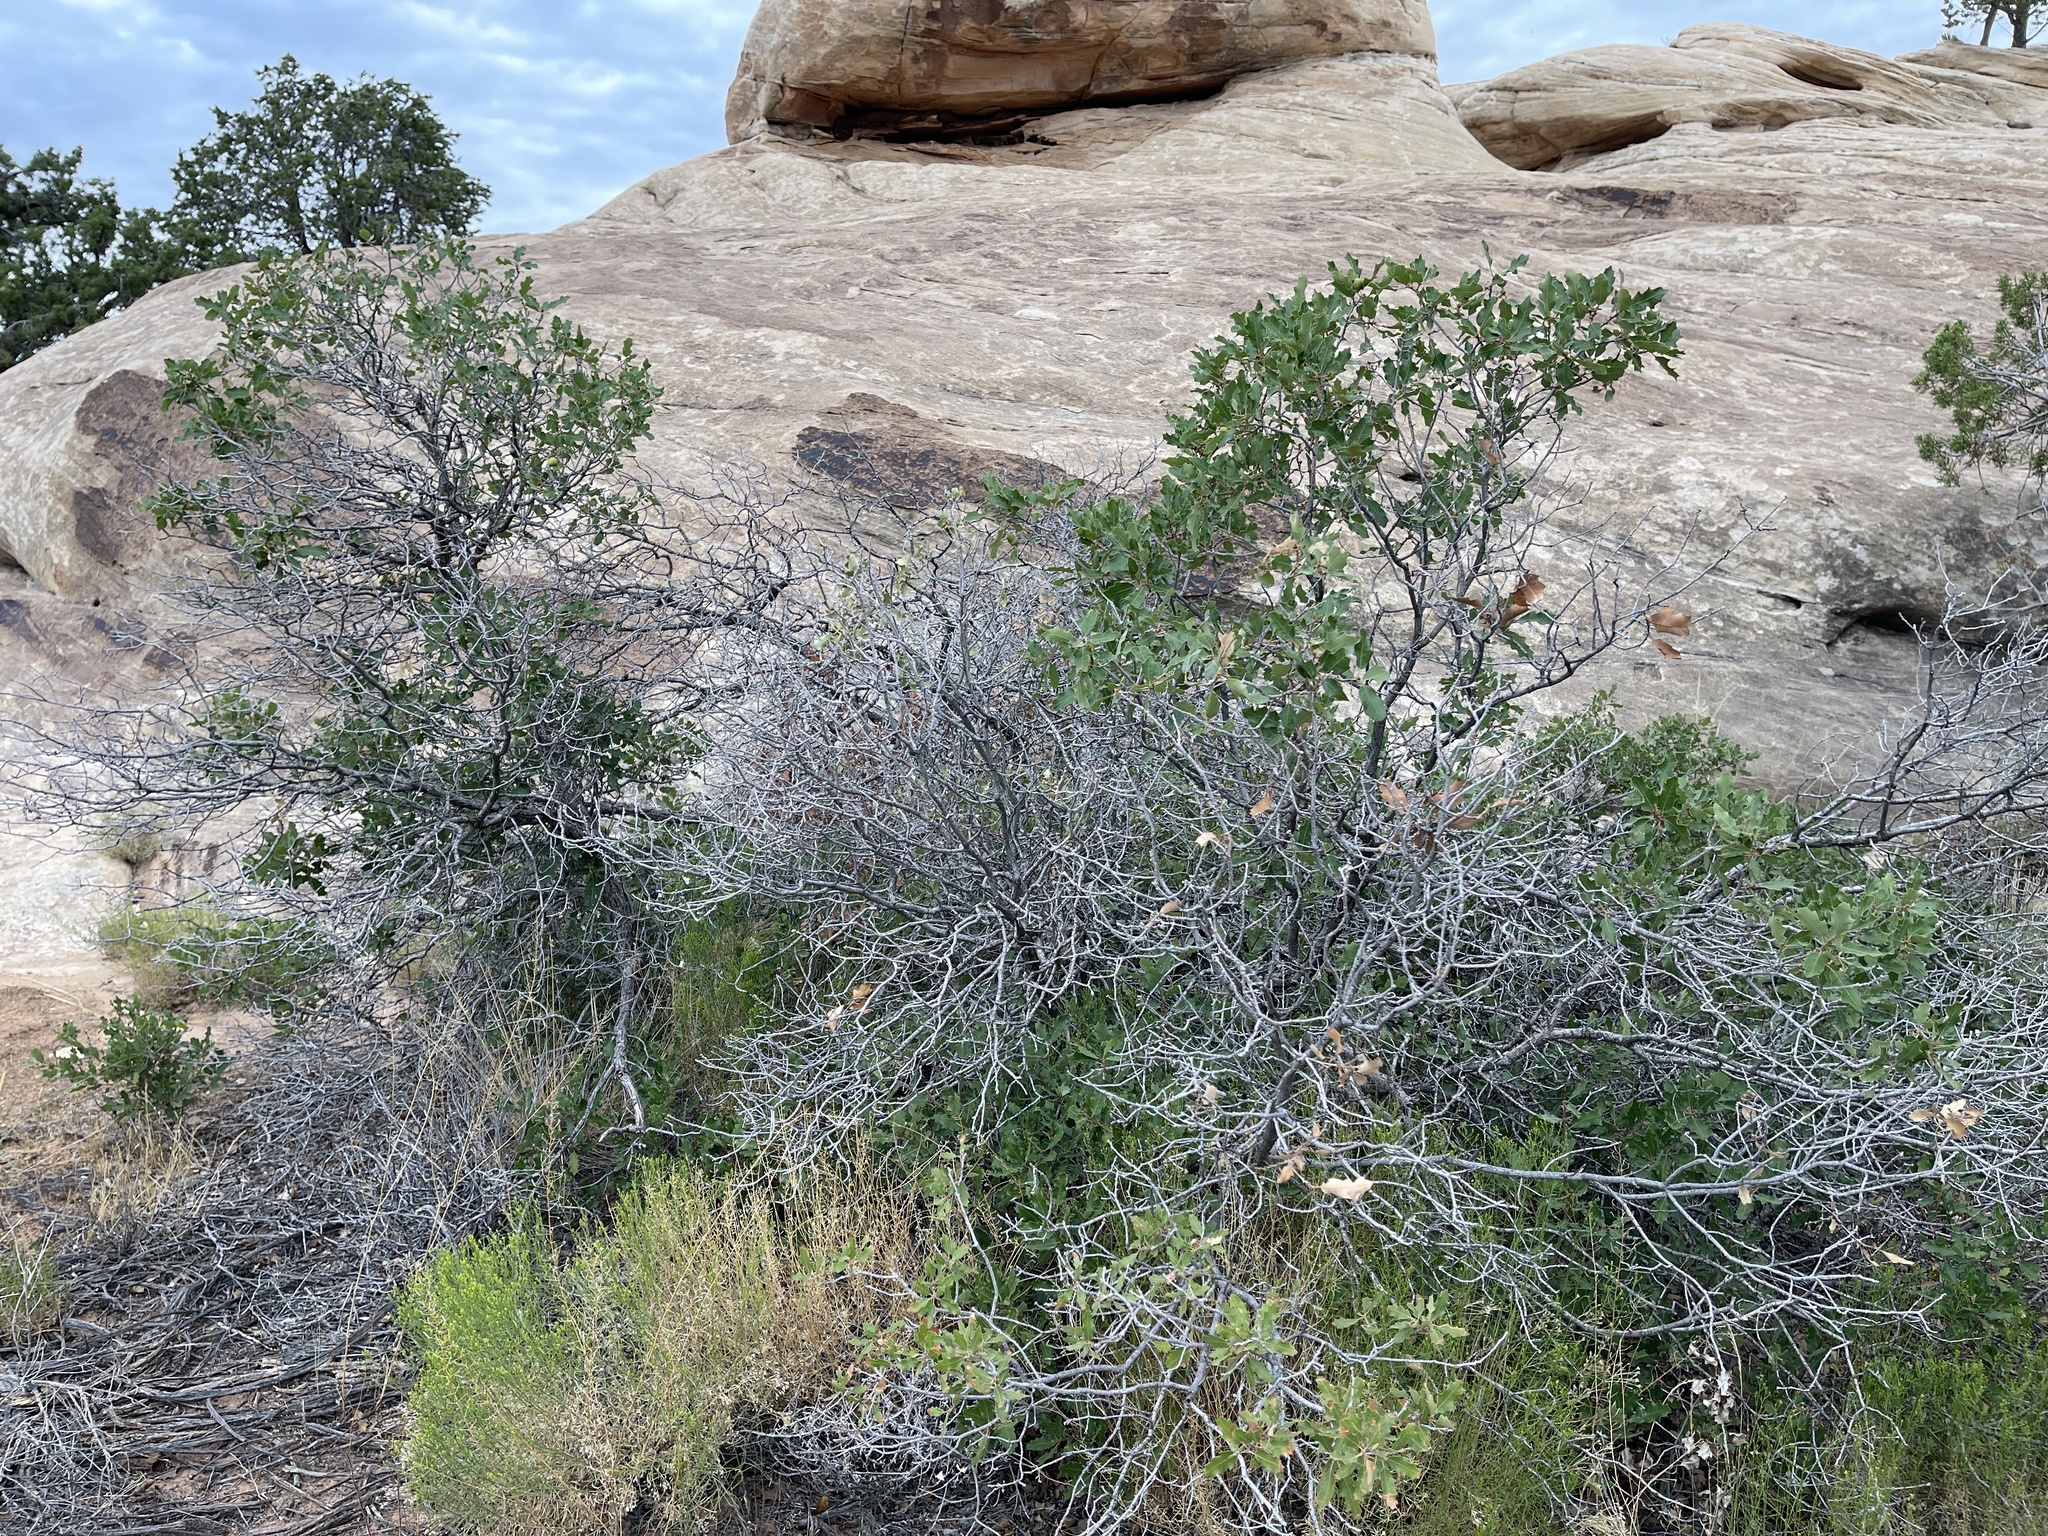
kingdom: Plantae
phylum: Tracheophyta
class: Magnoliopsida
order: Fagales
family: Fagaceae
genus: Quercus
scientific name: Quercus welshii
